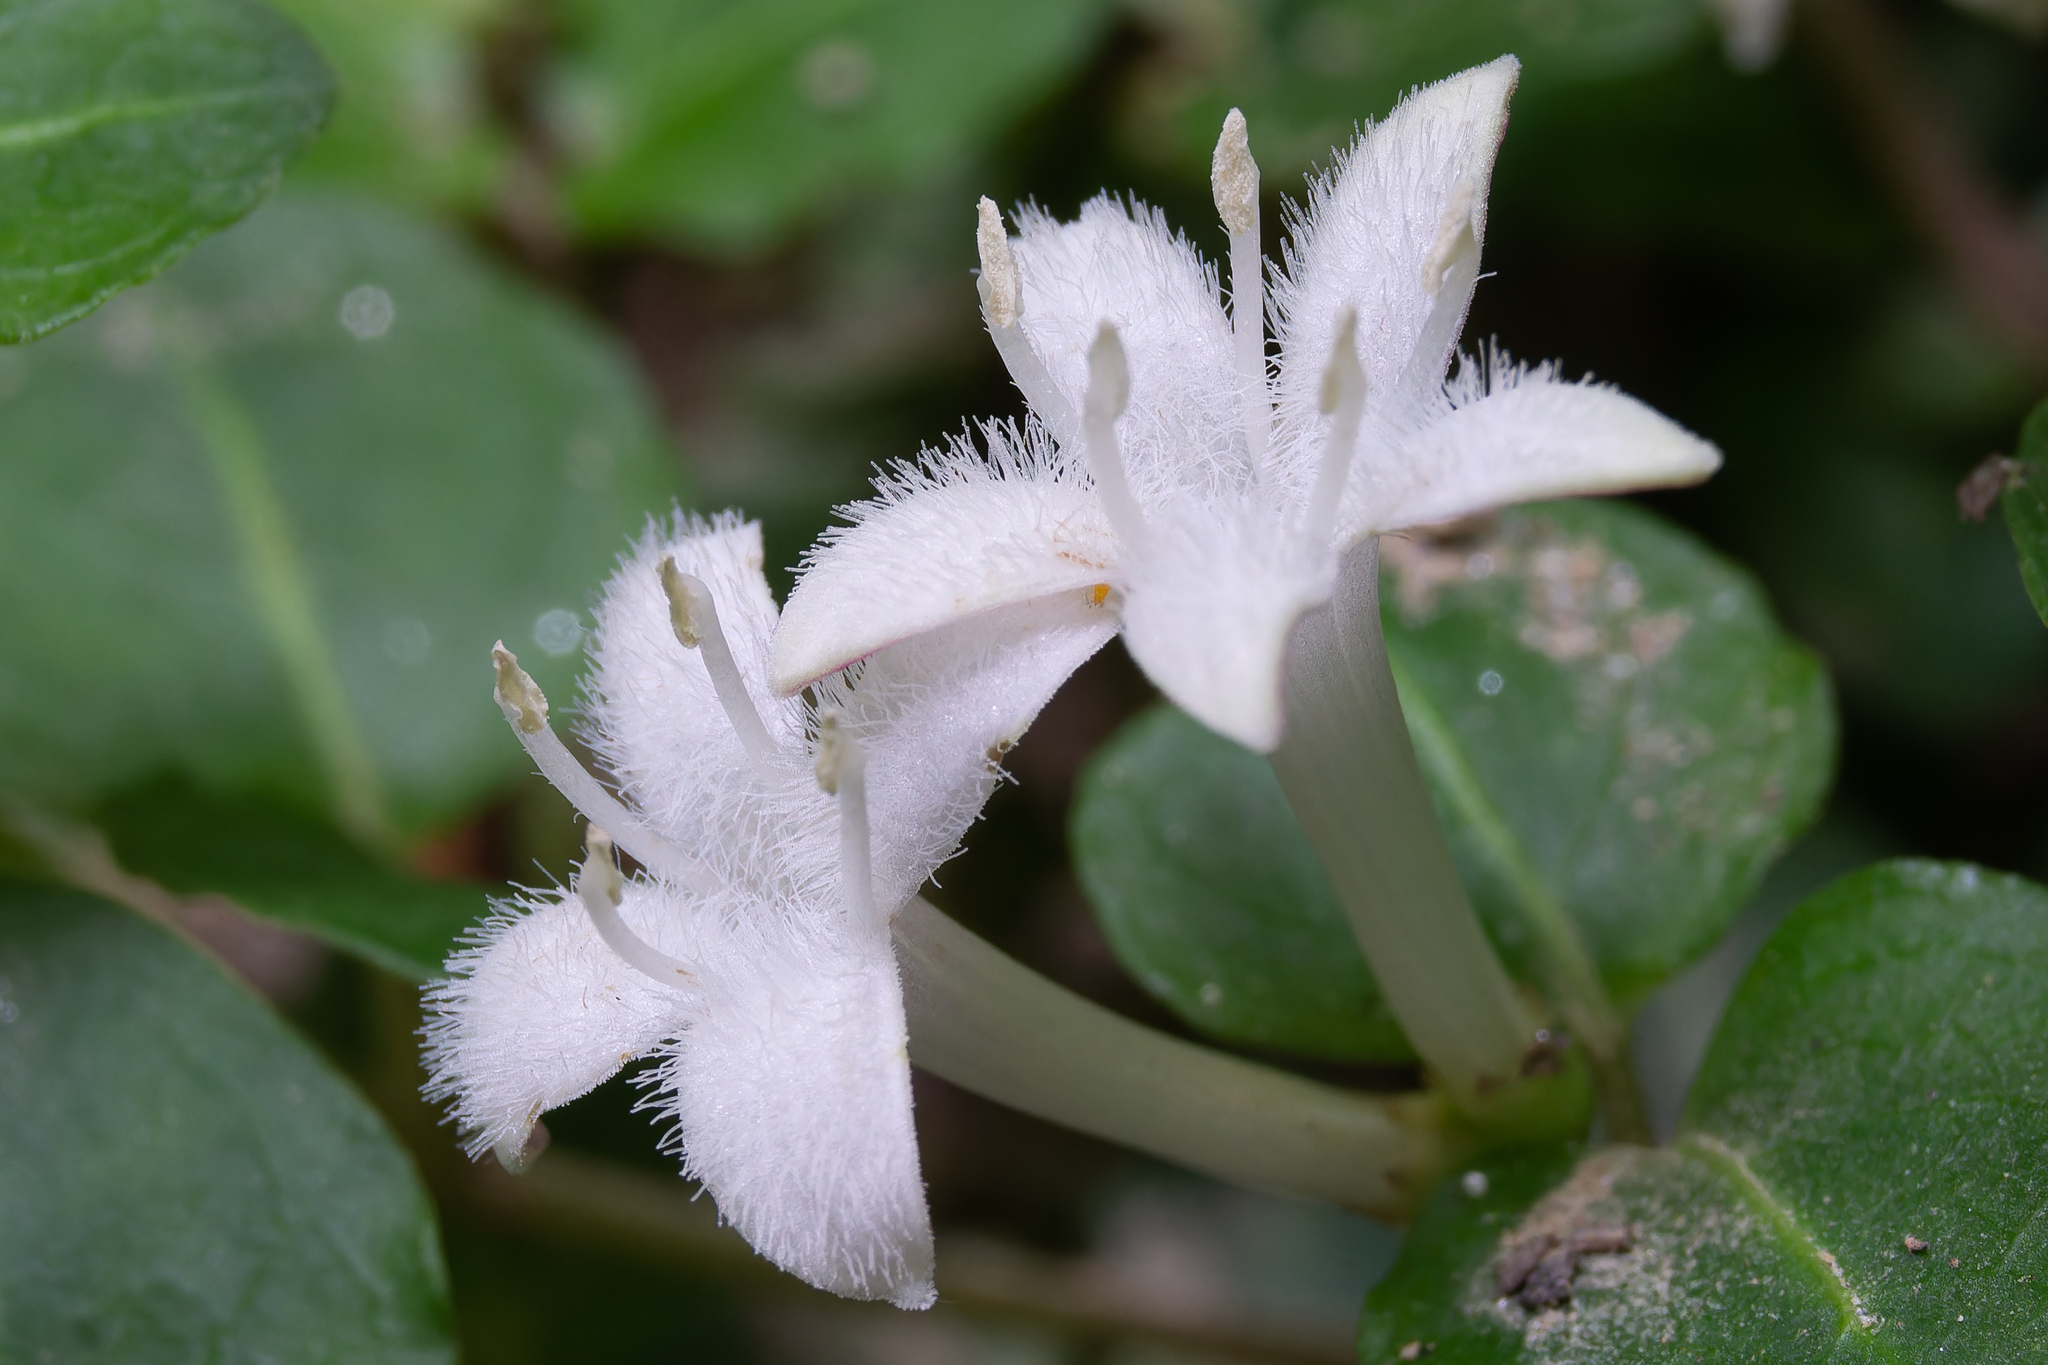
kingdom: Plantae
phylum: Tracheophyta
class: Magnoliopsida
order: Gentianales
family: Rubiaceae
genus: Mitchella
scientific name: Mitchella repens
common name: Partridge-berry
